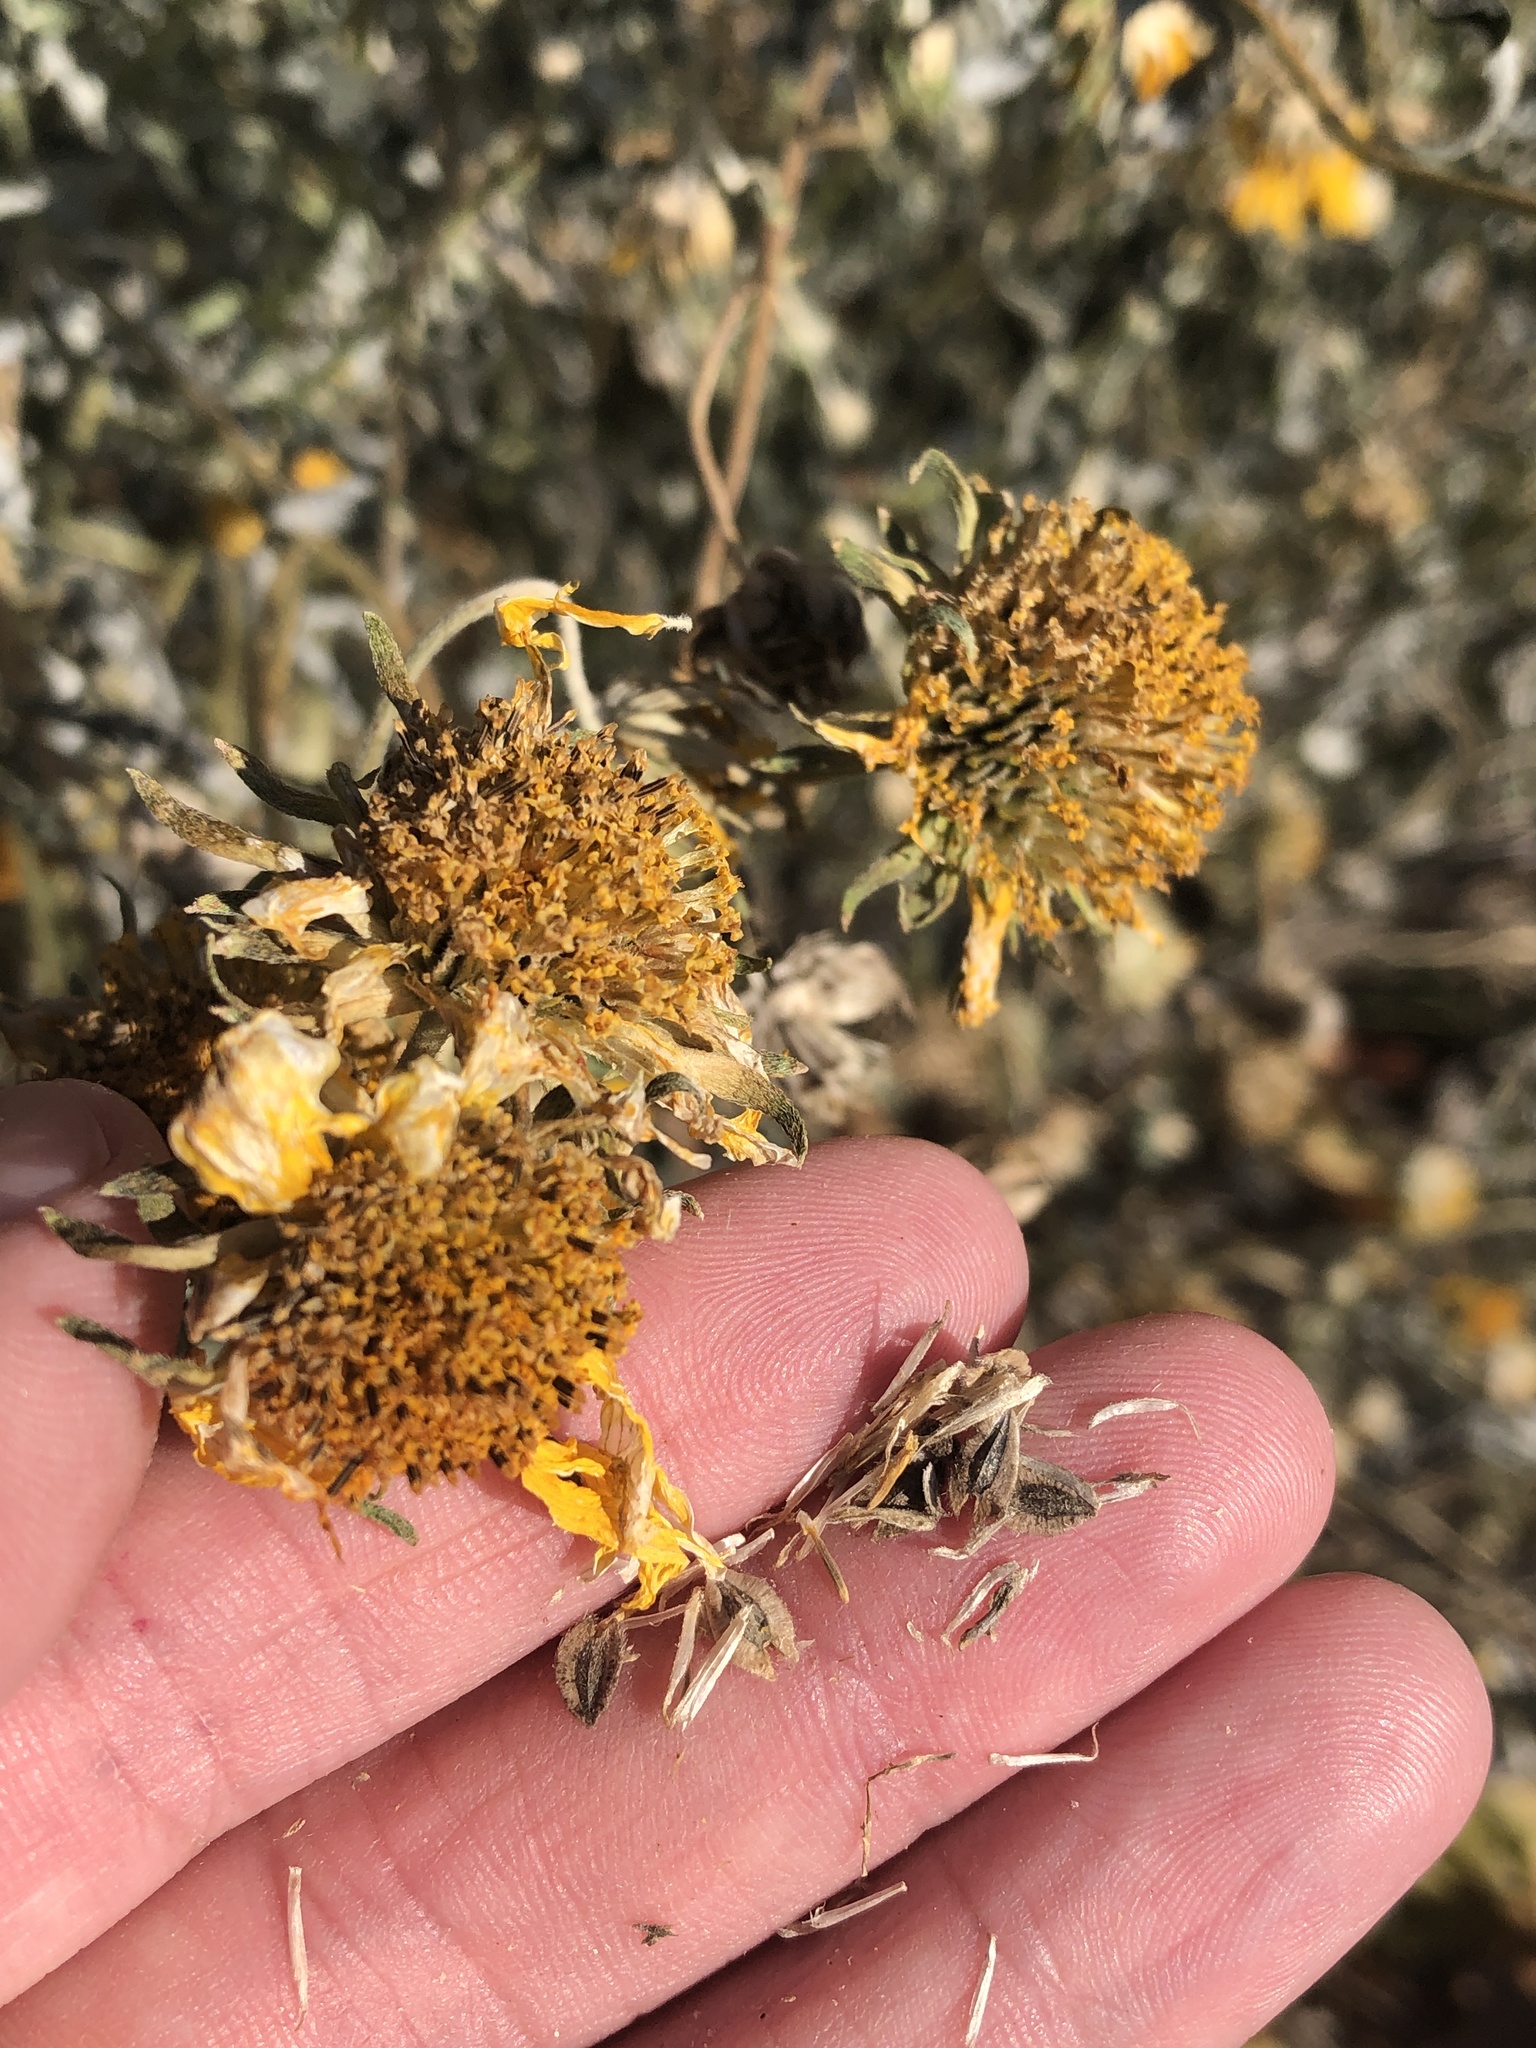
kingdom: Plantae
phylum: Tracheophyta
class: Magnoliopsida
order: Asterales
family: Asteraceae
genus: Verbesina
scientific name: Verbesina encelioides
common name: Golden crownbeard
